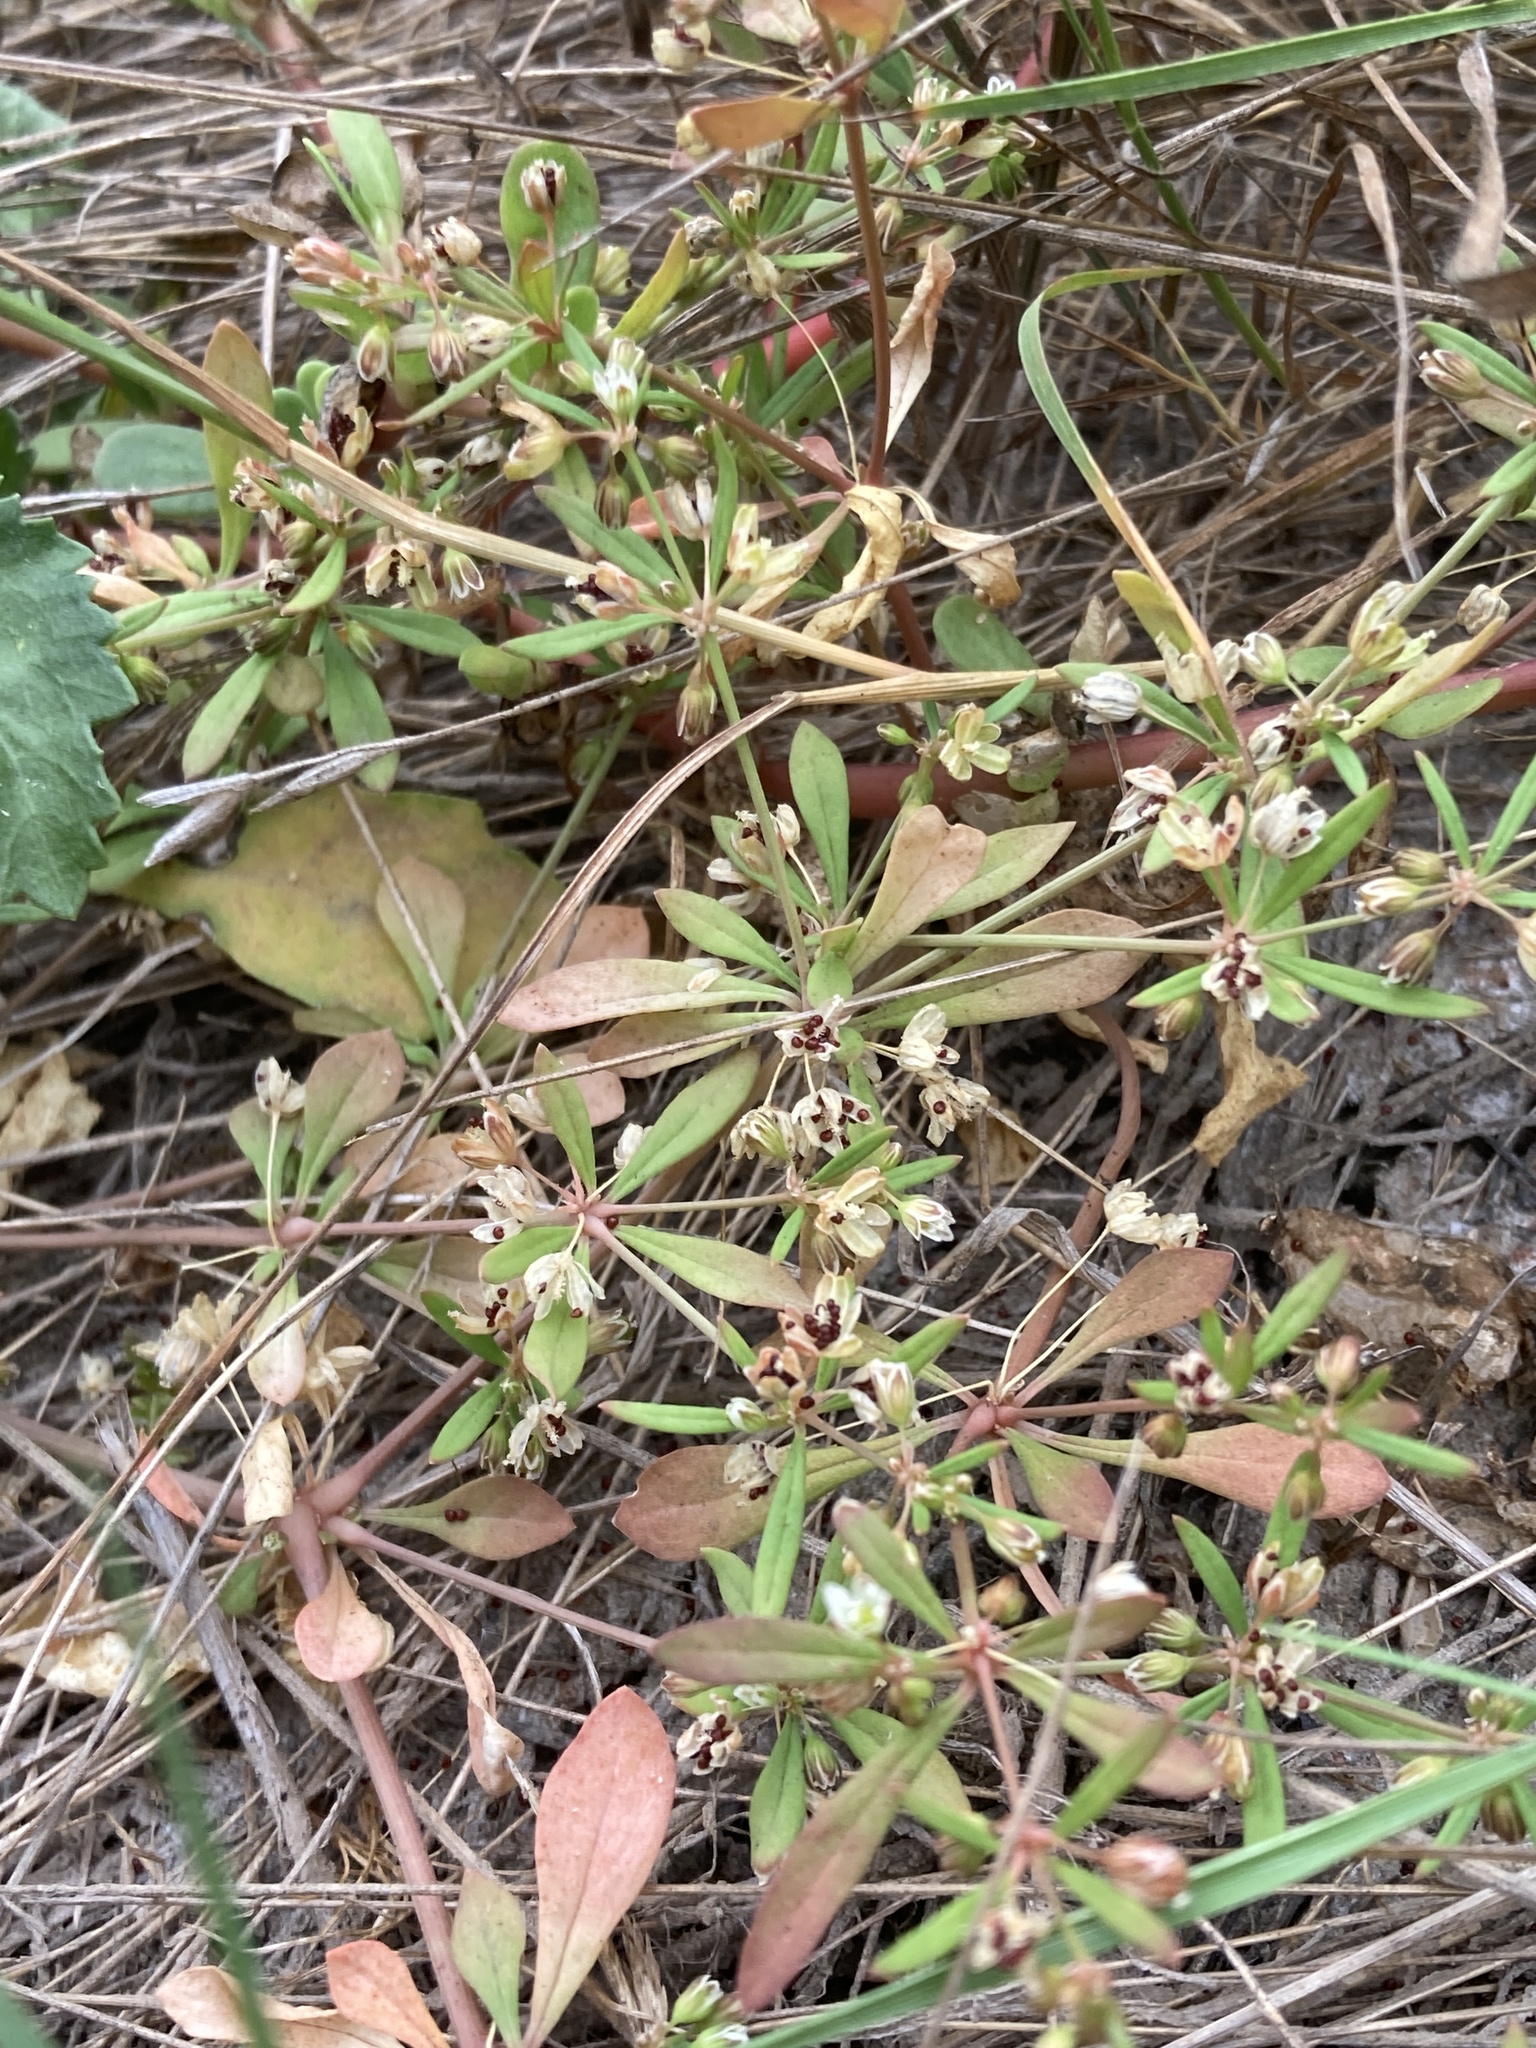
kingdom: Plantae
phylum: Tracheophyta
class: Magnoliopsida
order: Caryophyllales
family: Molluginaceae
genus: Mollugo
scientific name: Mollugo verticillata
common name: Green carpetweed
